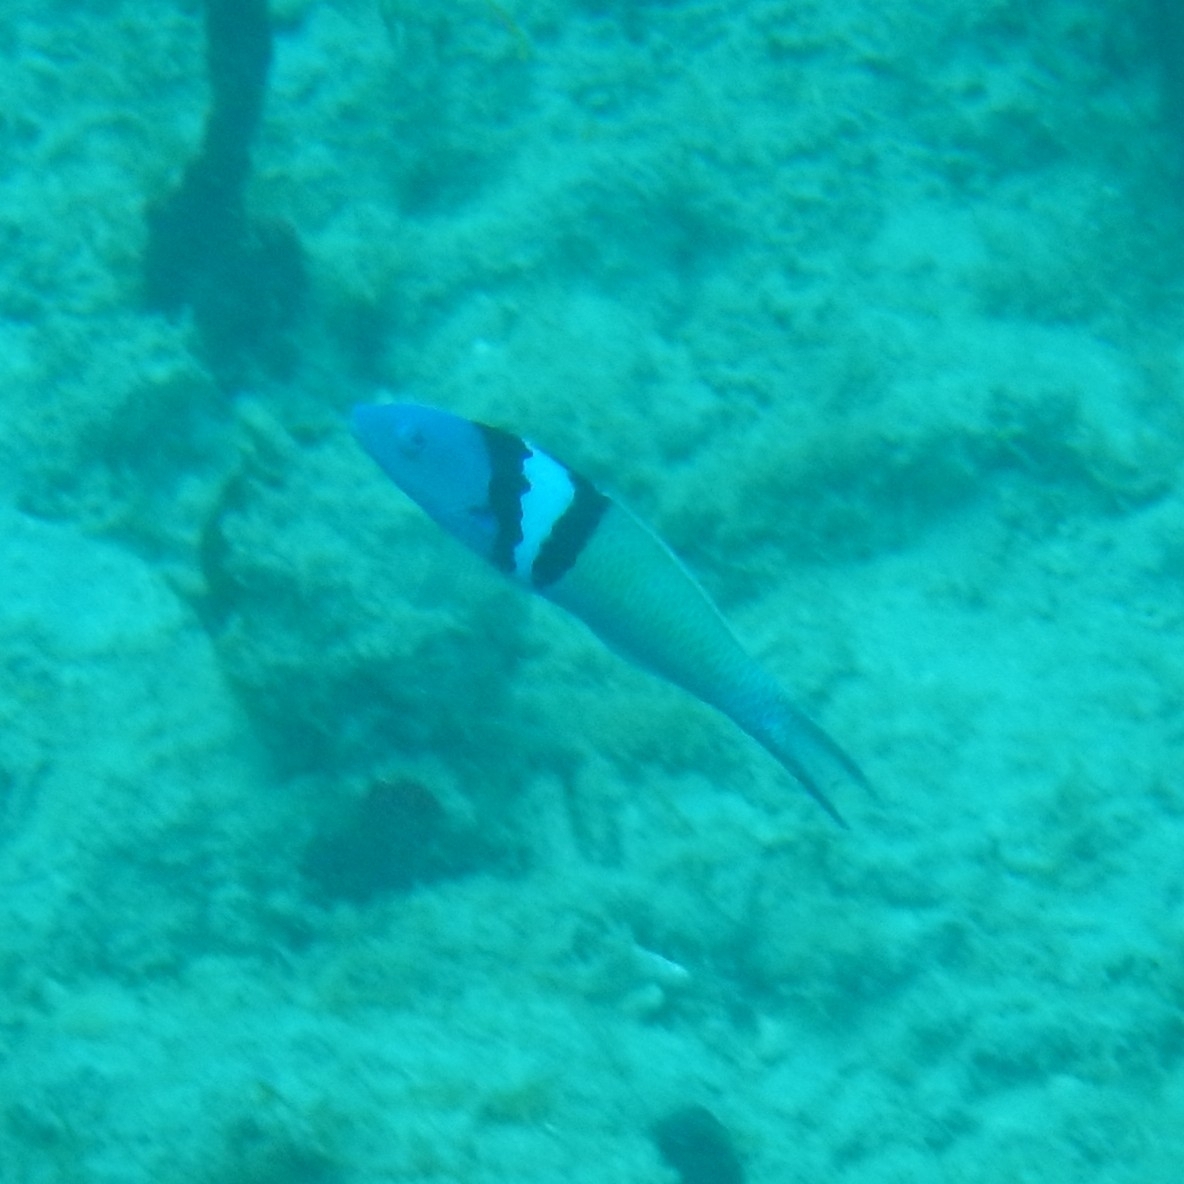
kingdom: Animalia
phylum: Chordata
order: Perciformes
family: Labridae
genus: Thalassoma
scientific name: Thalassoma bifasciatum
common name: Bluehead wrasse
